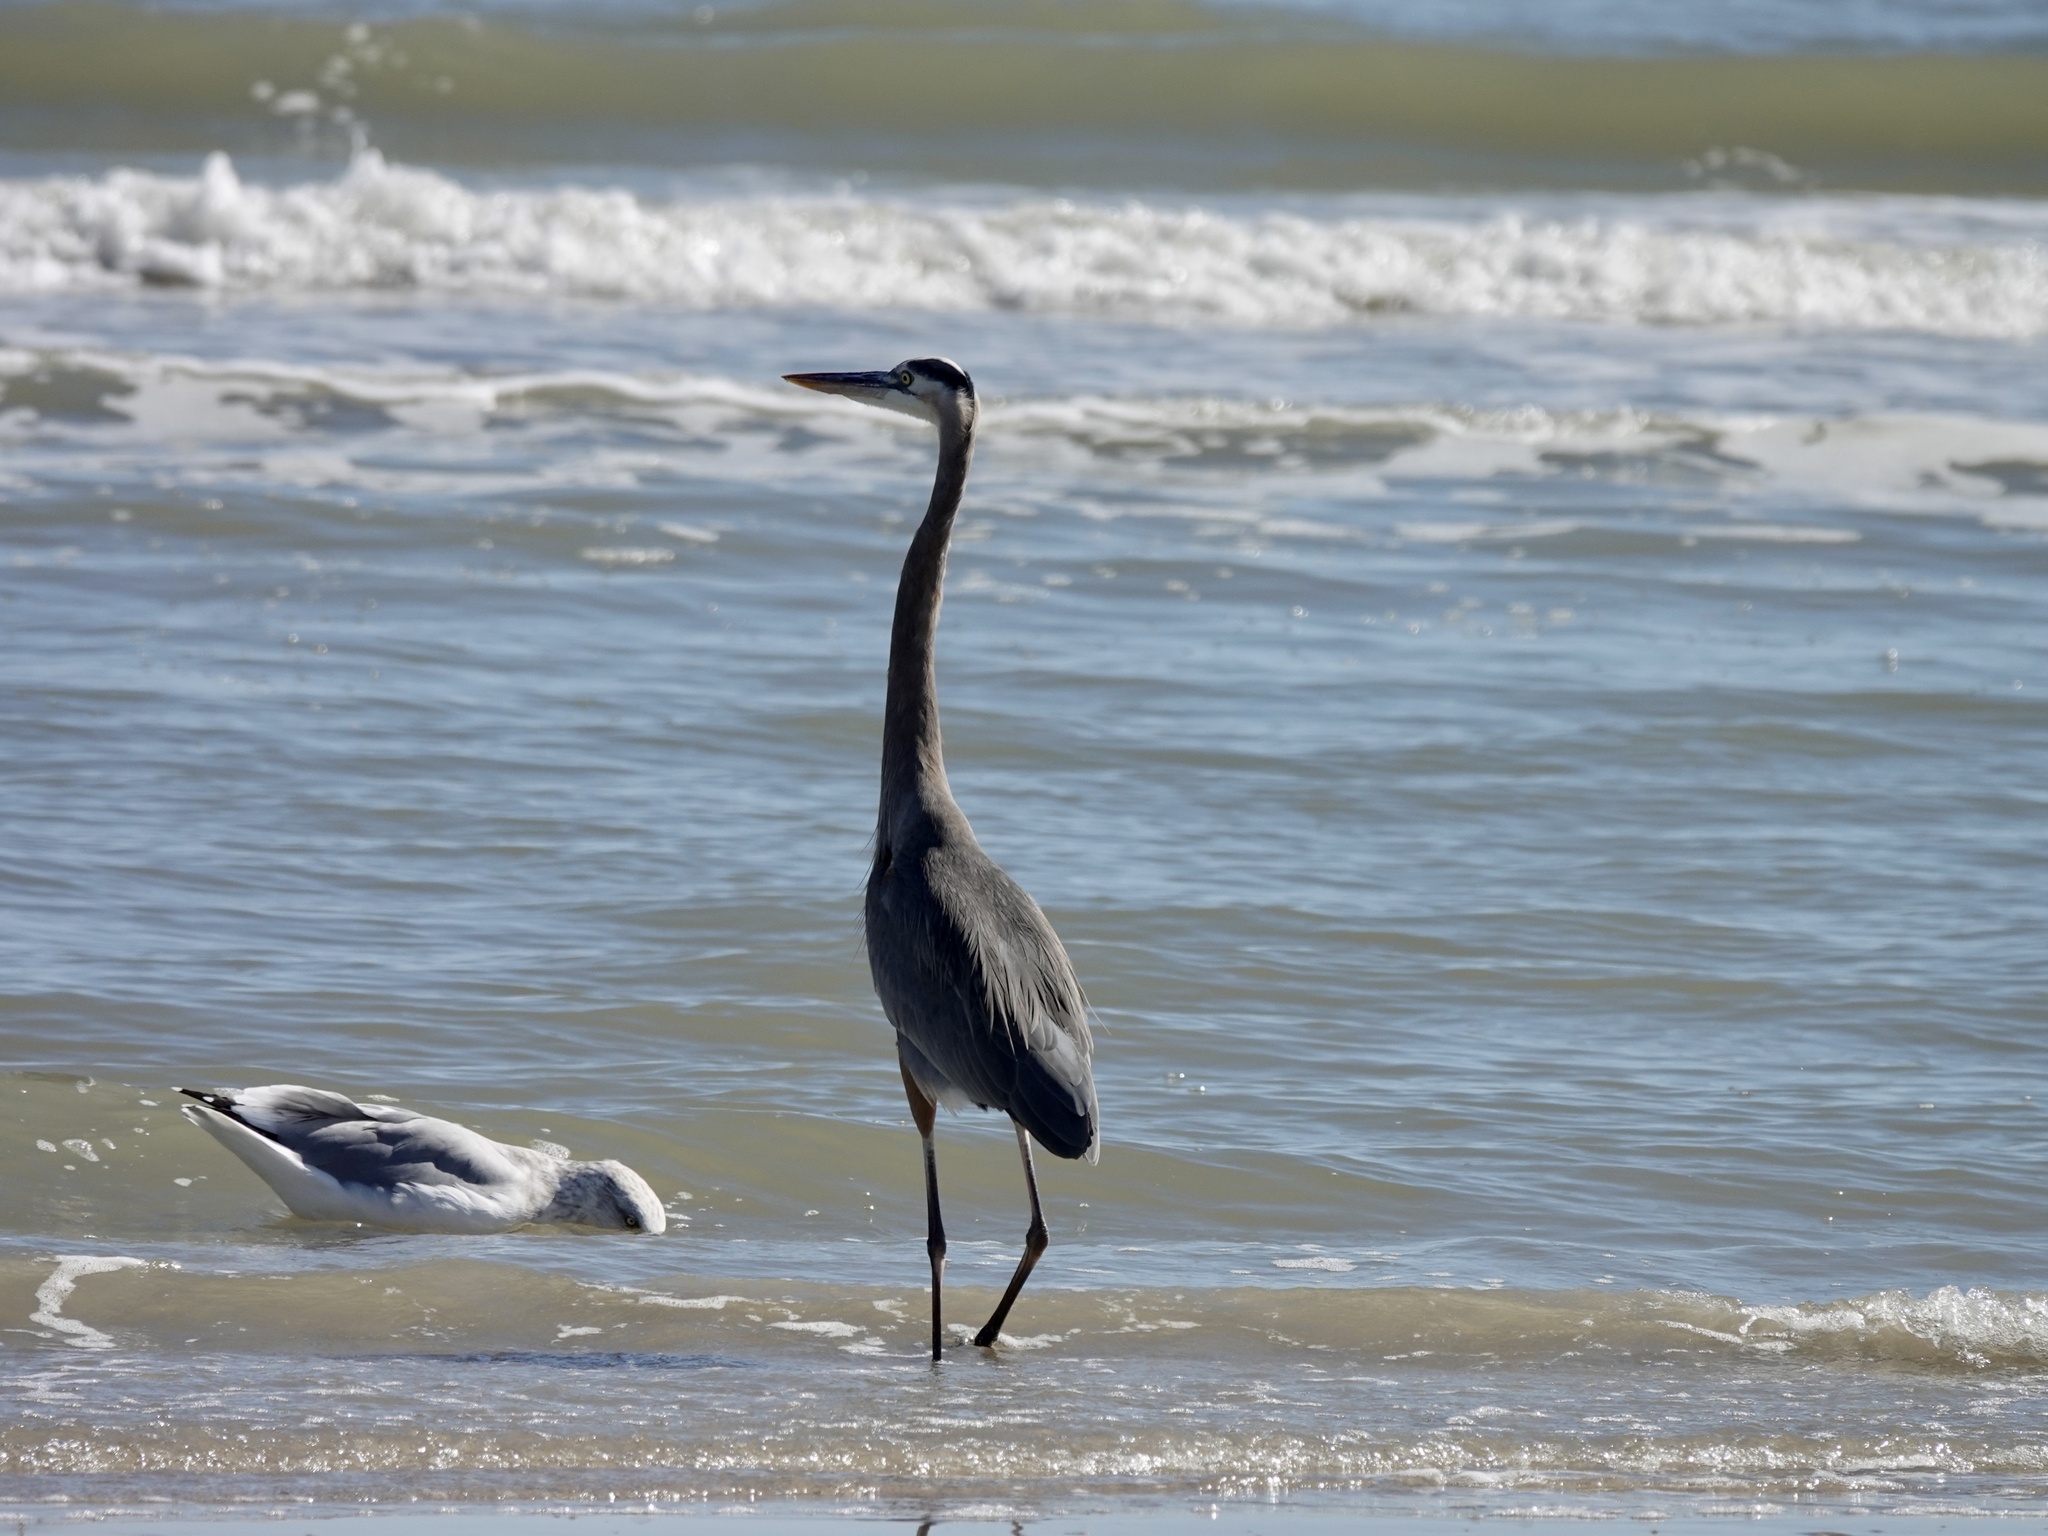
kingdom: Animalia
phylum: Chordata
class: Aves
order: Pelecaniformes
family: Ardeidae
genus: Ardea
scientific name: Ardea herodias
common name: Great blue heron
